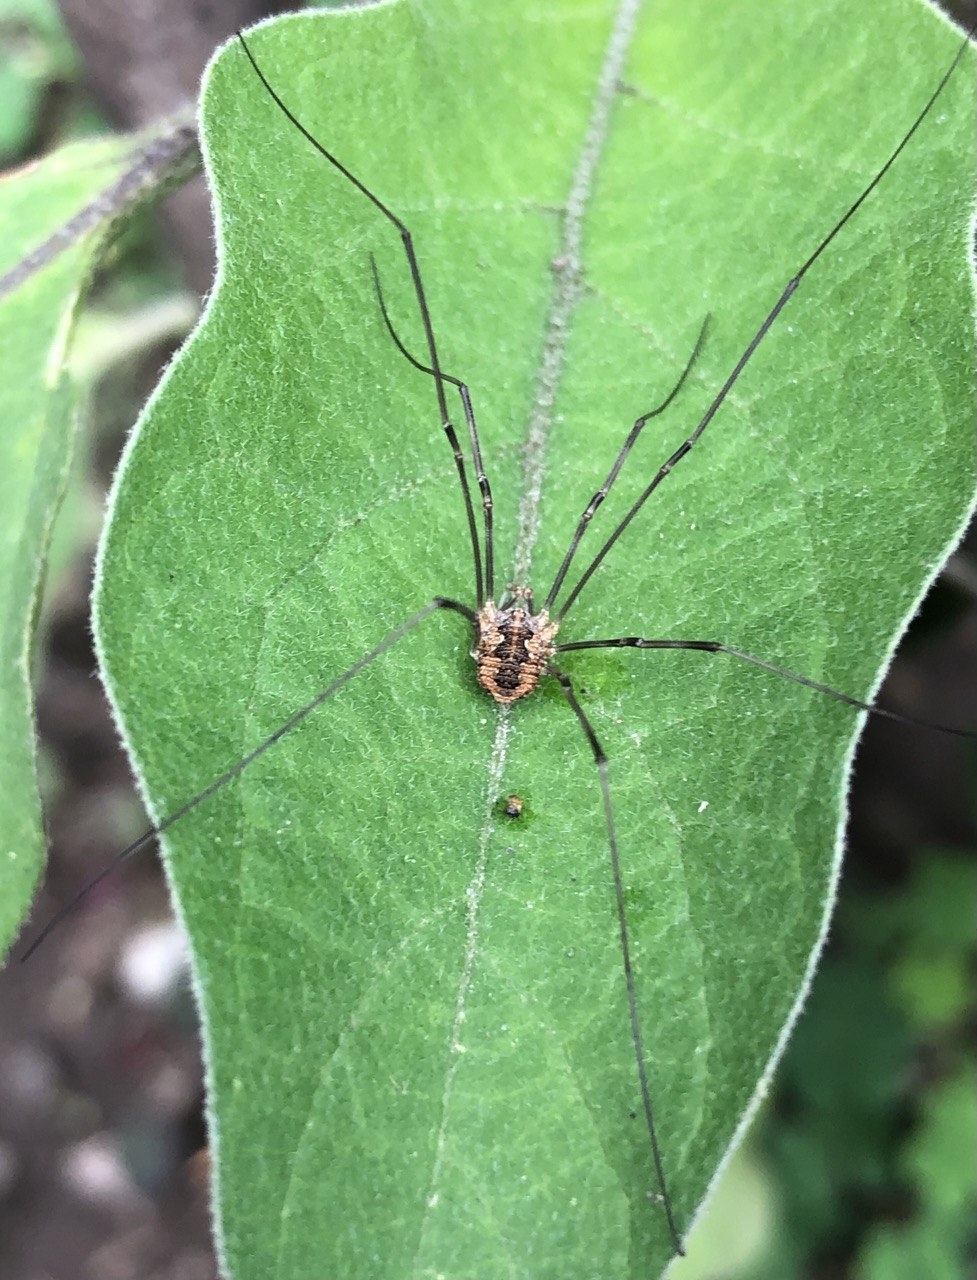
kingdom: Animalia
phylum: Arthropoda
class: Arachnida
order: Opiliones
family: Phalangiidae
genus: Phalangium
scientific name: Phalangium opilio
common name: Daddy longleg
